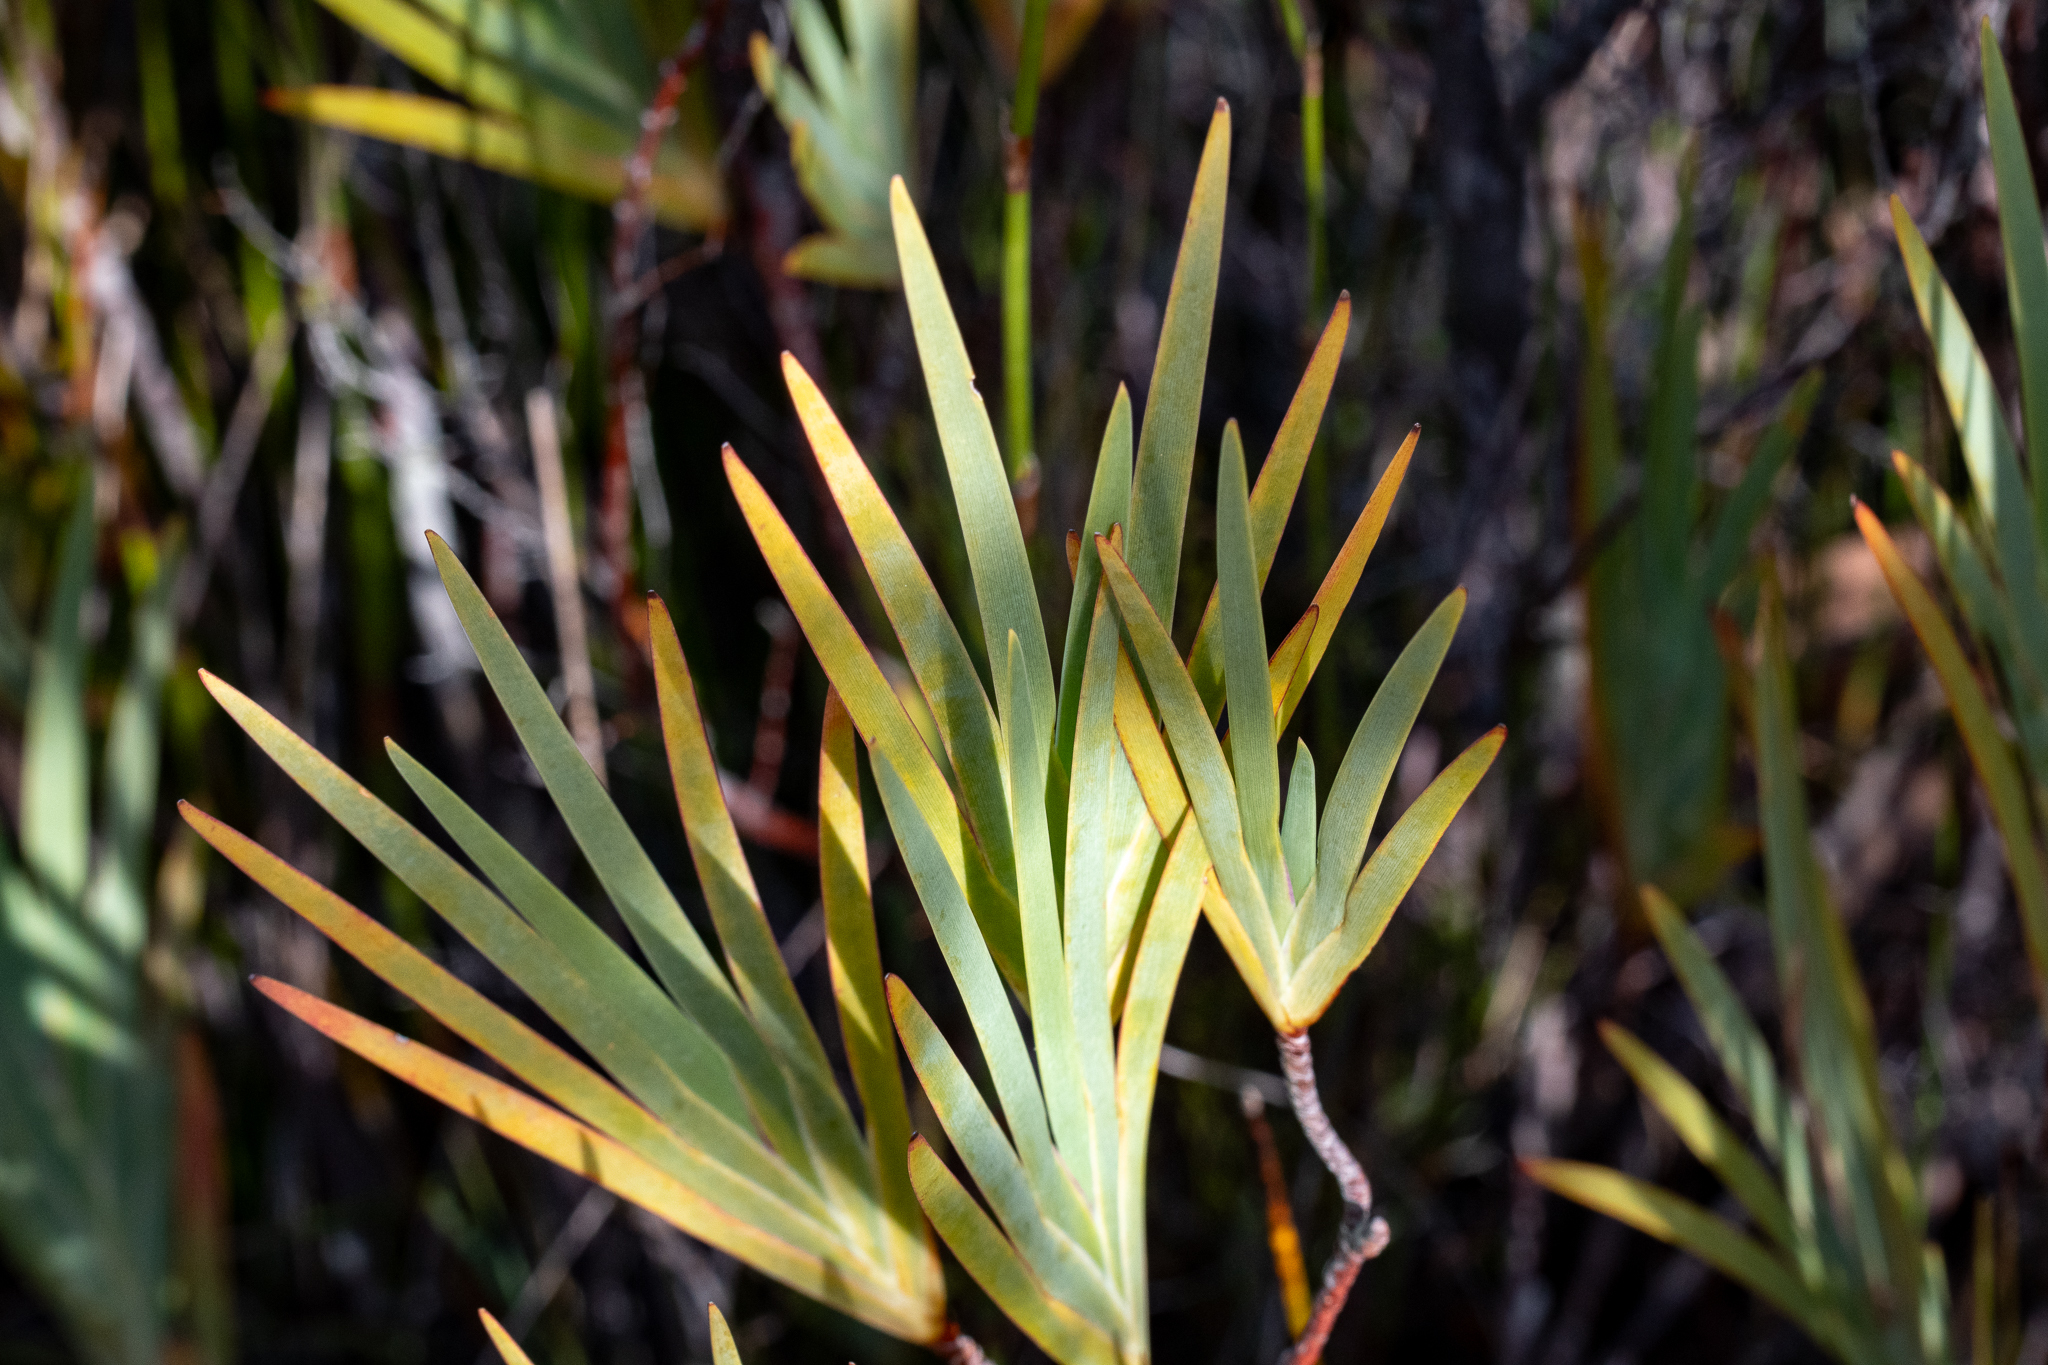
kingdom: Plantae
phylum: Tracheophyta
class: Liliopsida
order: Asparagales
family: Iridaceae
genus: Nivenia
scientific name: Nivenia levynsiae
